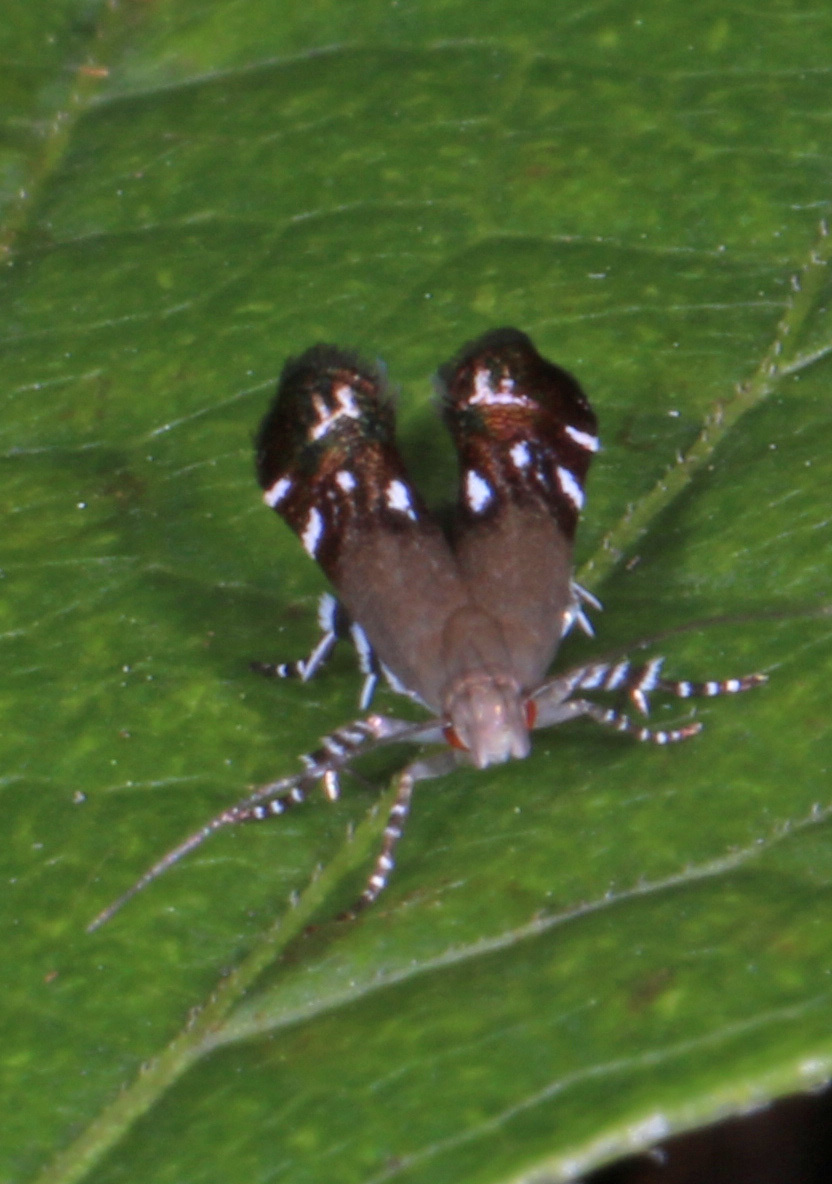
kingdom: Animalia
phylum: Arthropoda
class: Insecta
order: Lepidoptera
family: Gelechiidae
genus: Anacampsis
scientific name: Anacampsis levipedella
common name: Silver-dashed anacampsis
